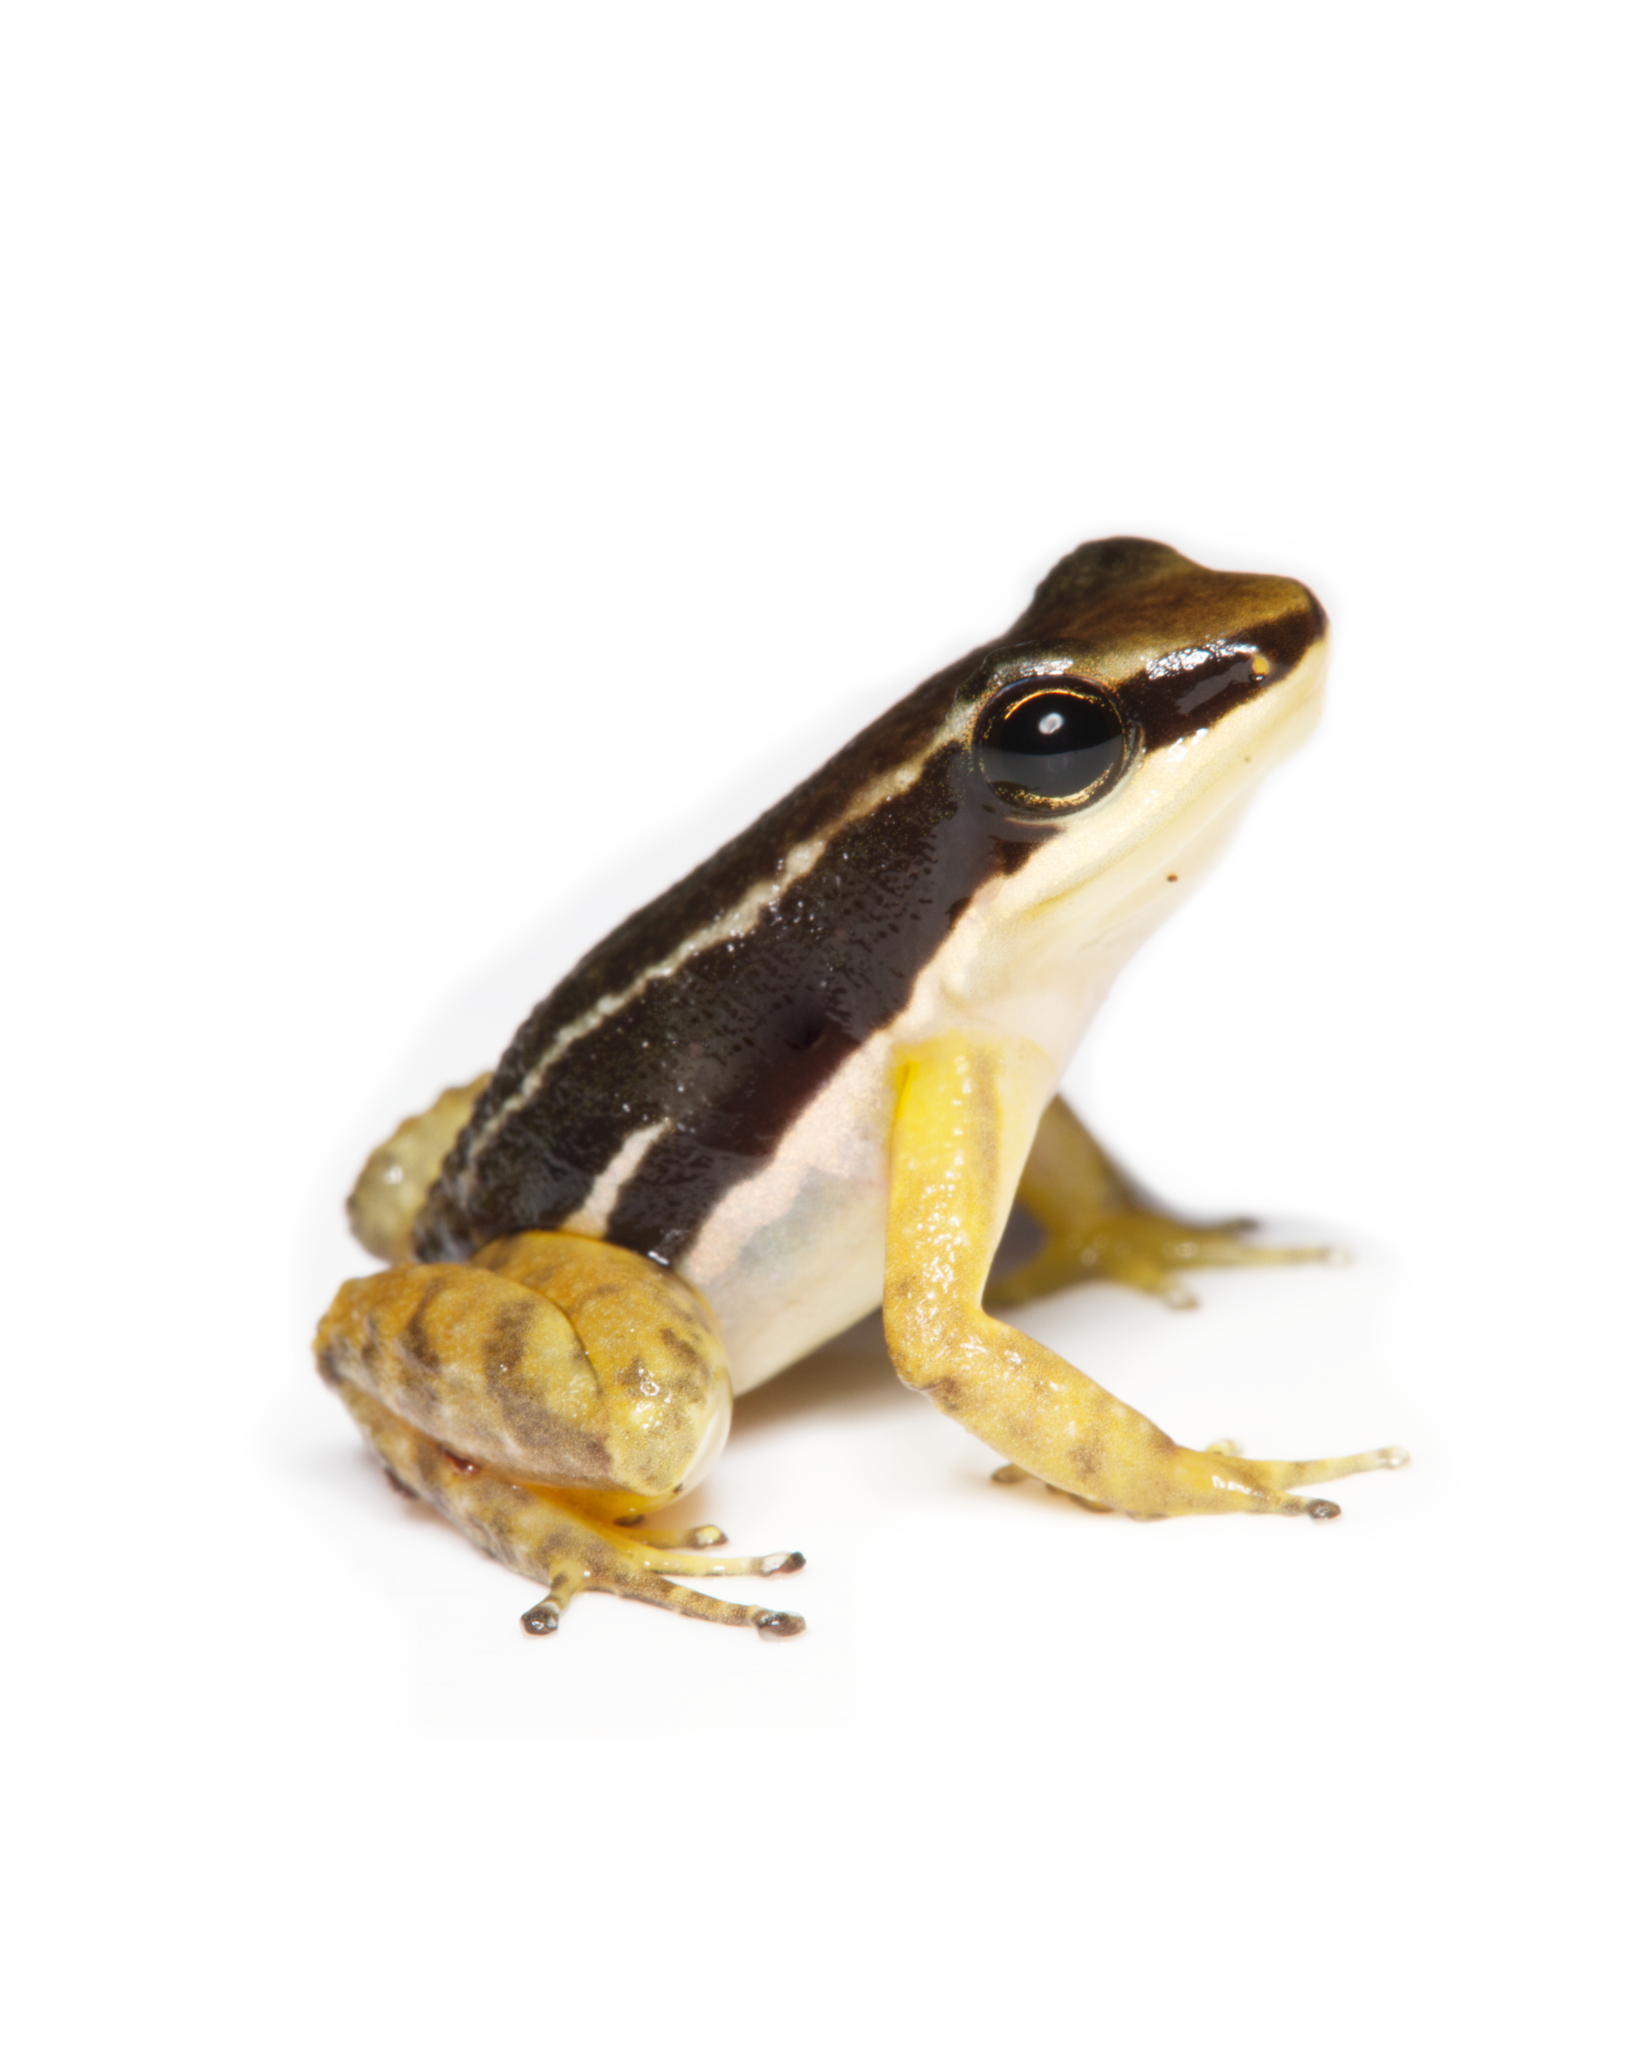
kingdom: Animalia
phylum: Chordata
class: Amphibia
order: Anura
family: Dendrobatidae
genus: Colostethus
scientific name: Colostethus pratti
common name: Pratt's rocket frog
